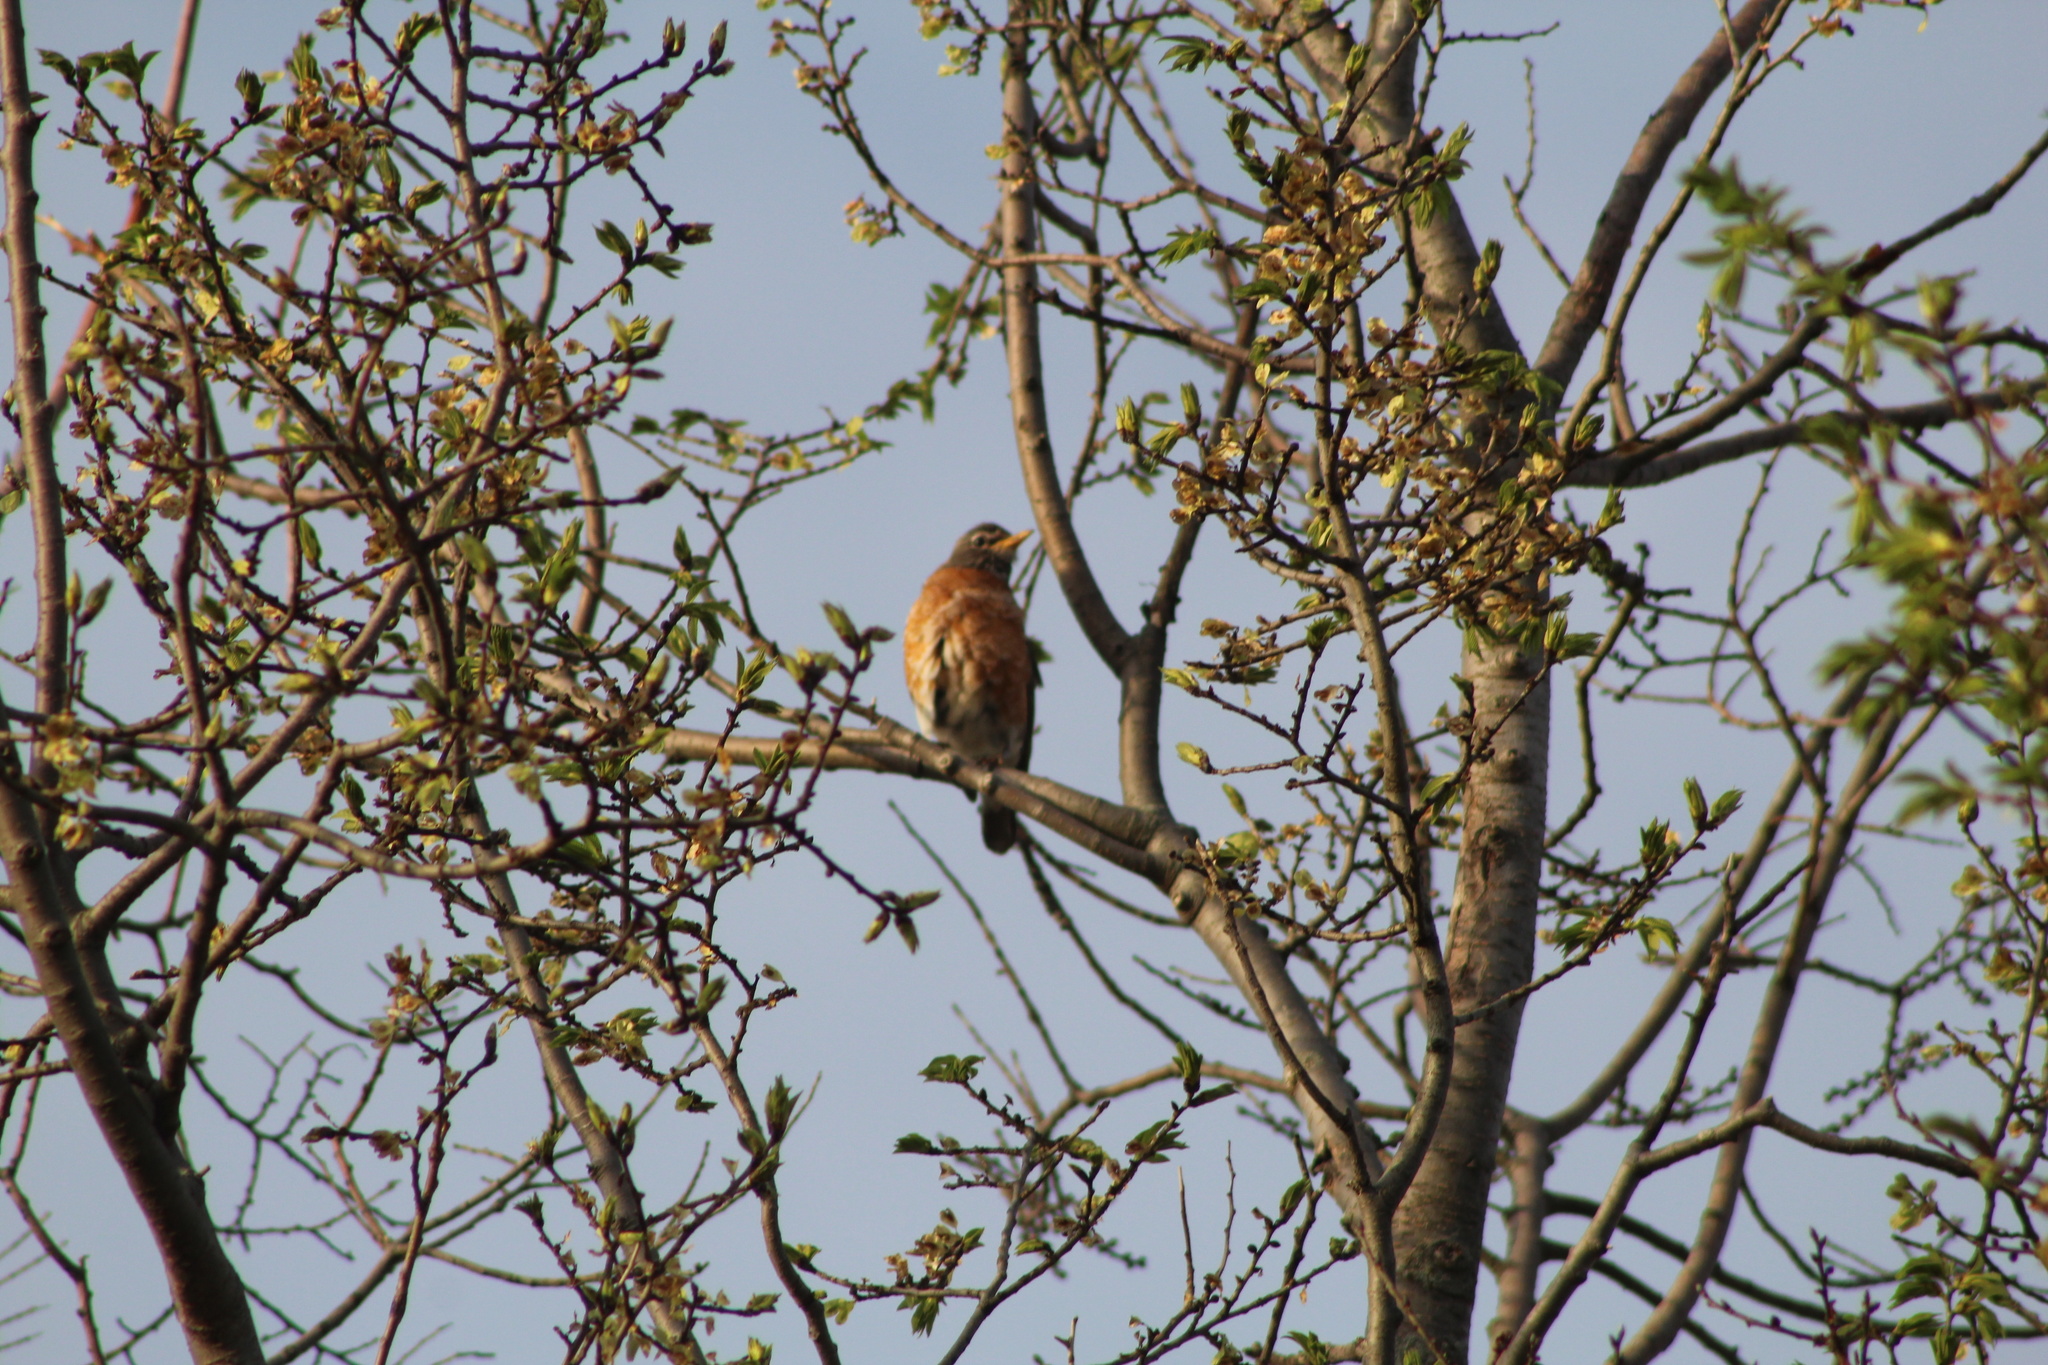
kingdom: Animalia
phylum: Chordata
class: Aves
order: Passeriformes
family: Turdidae
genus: Turdus
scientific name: Turdus migratorius
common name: American robin
